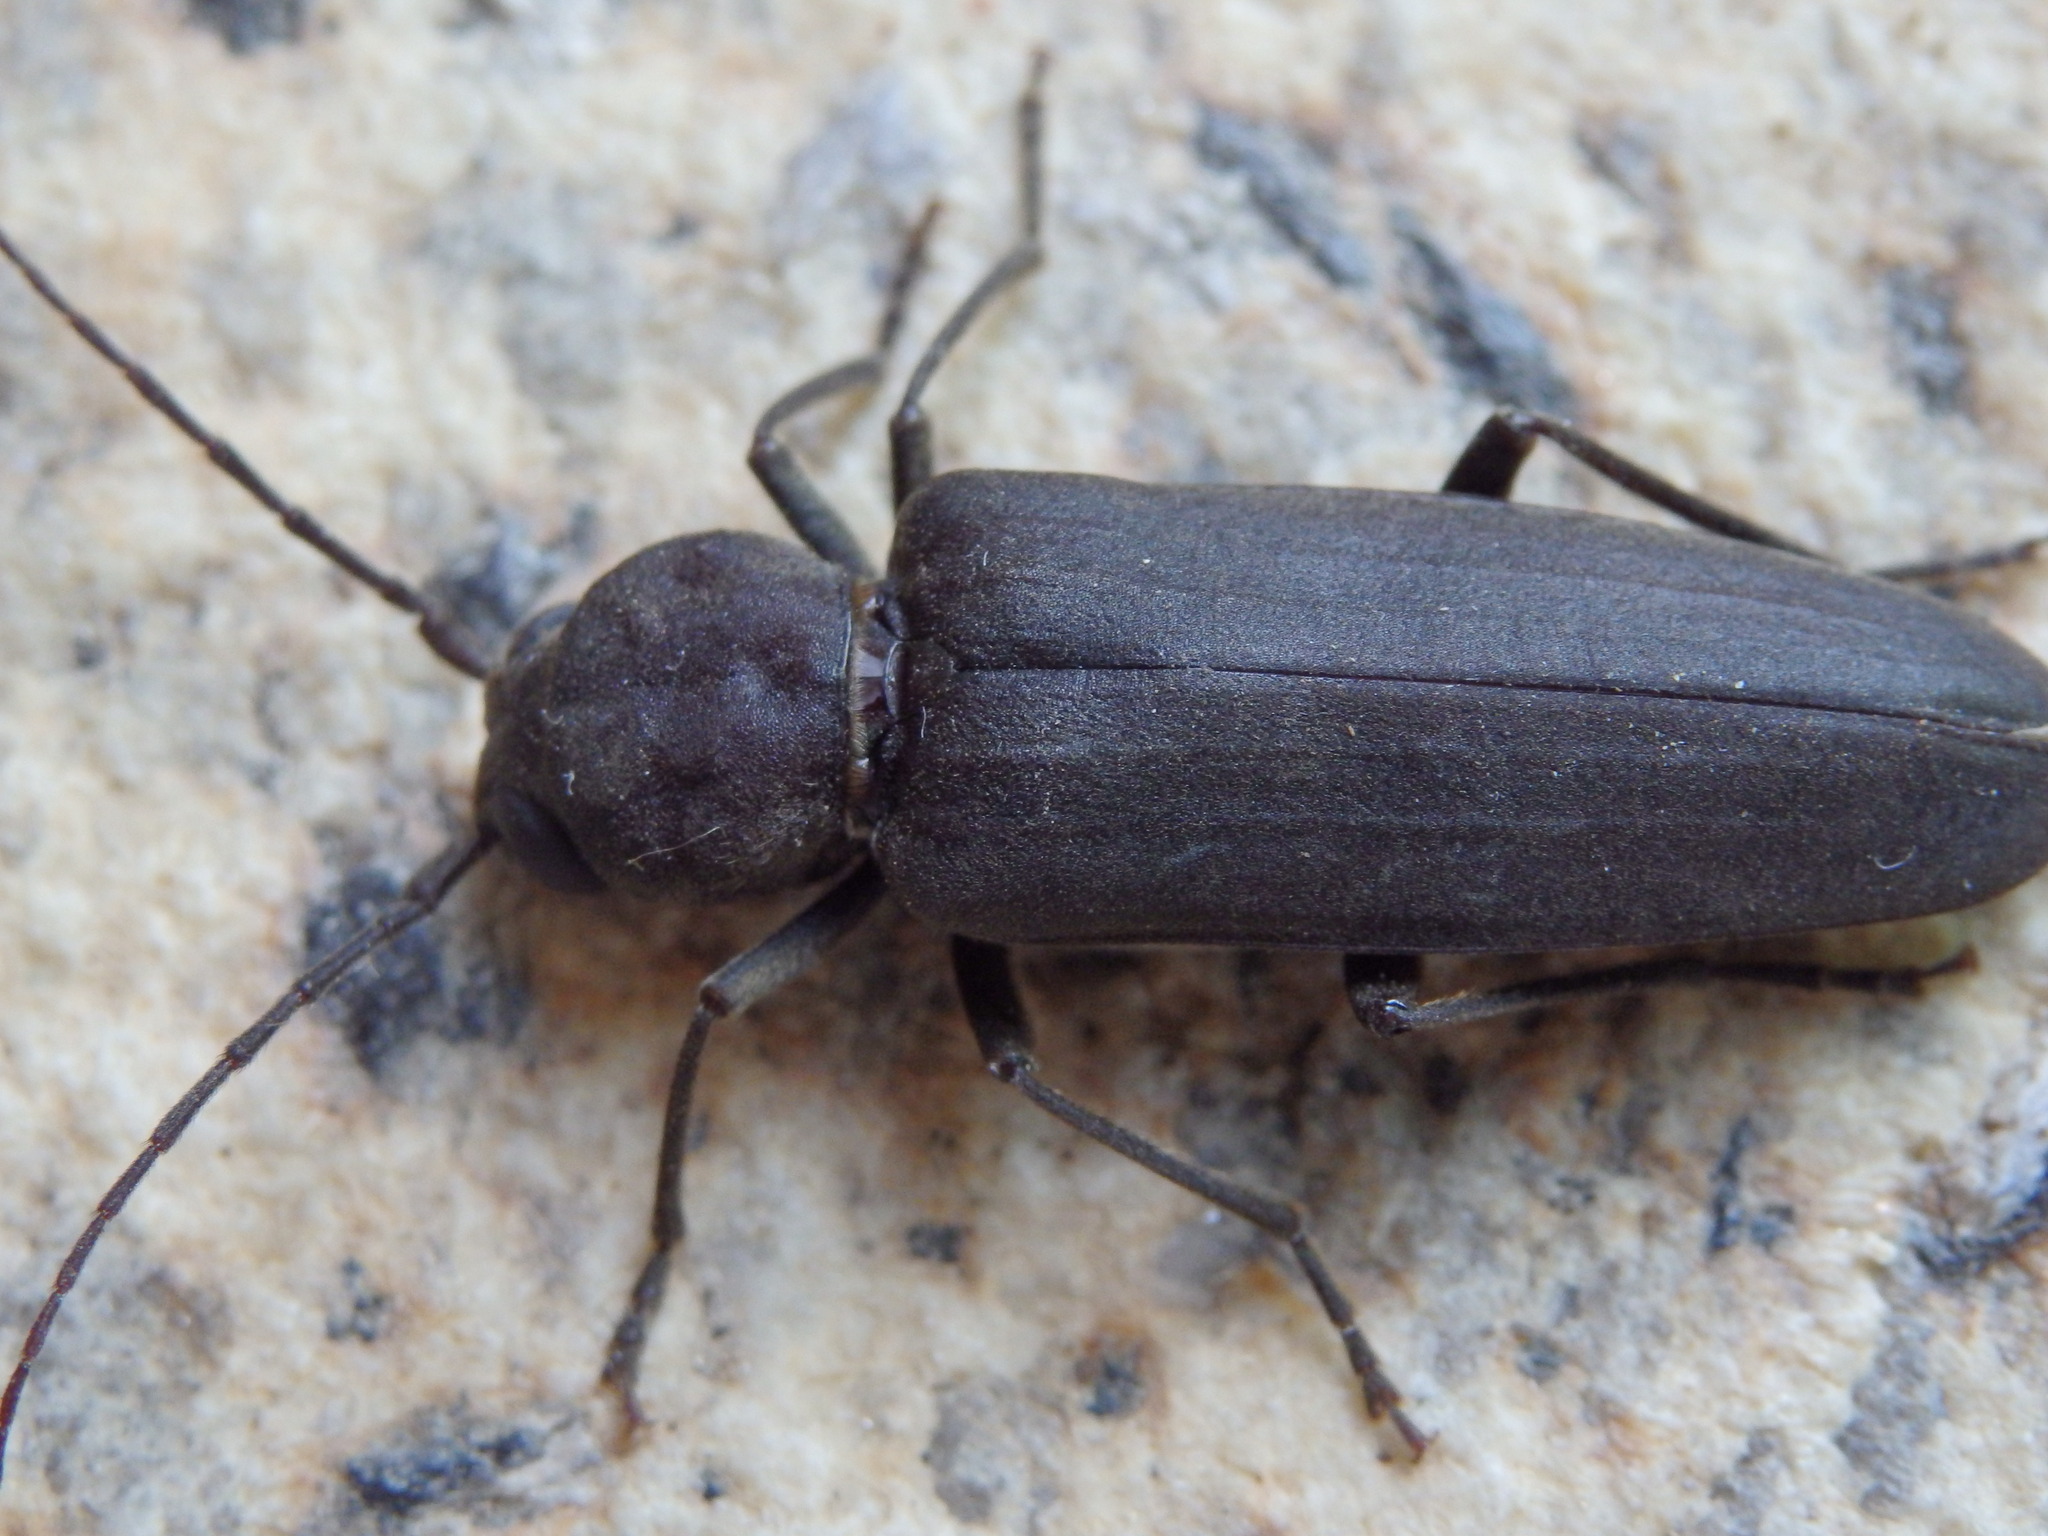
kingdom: Animalia
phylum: Arthropoda
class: Insecta
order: Coleoptera
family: Cerambycidae
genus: Arhopalus
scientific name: Arhopalus ferus
